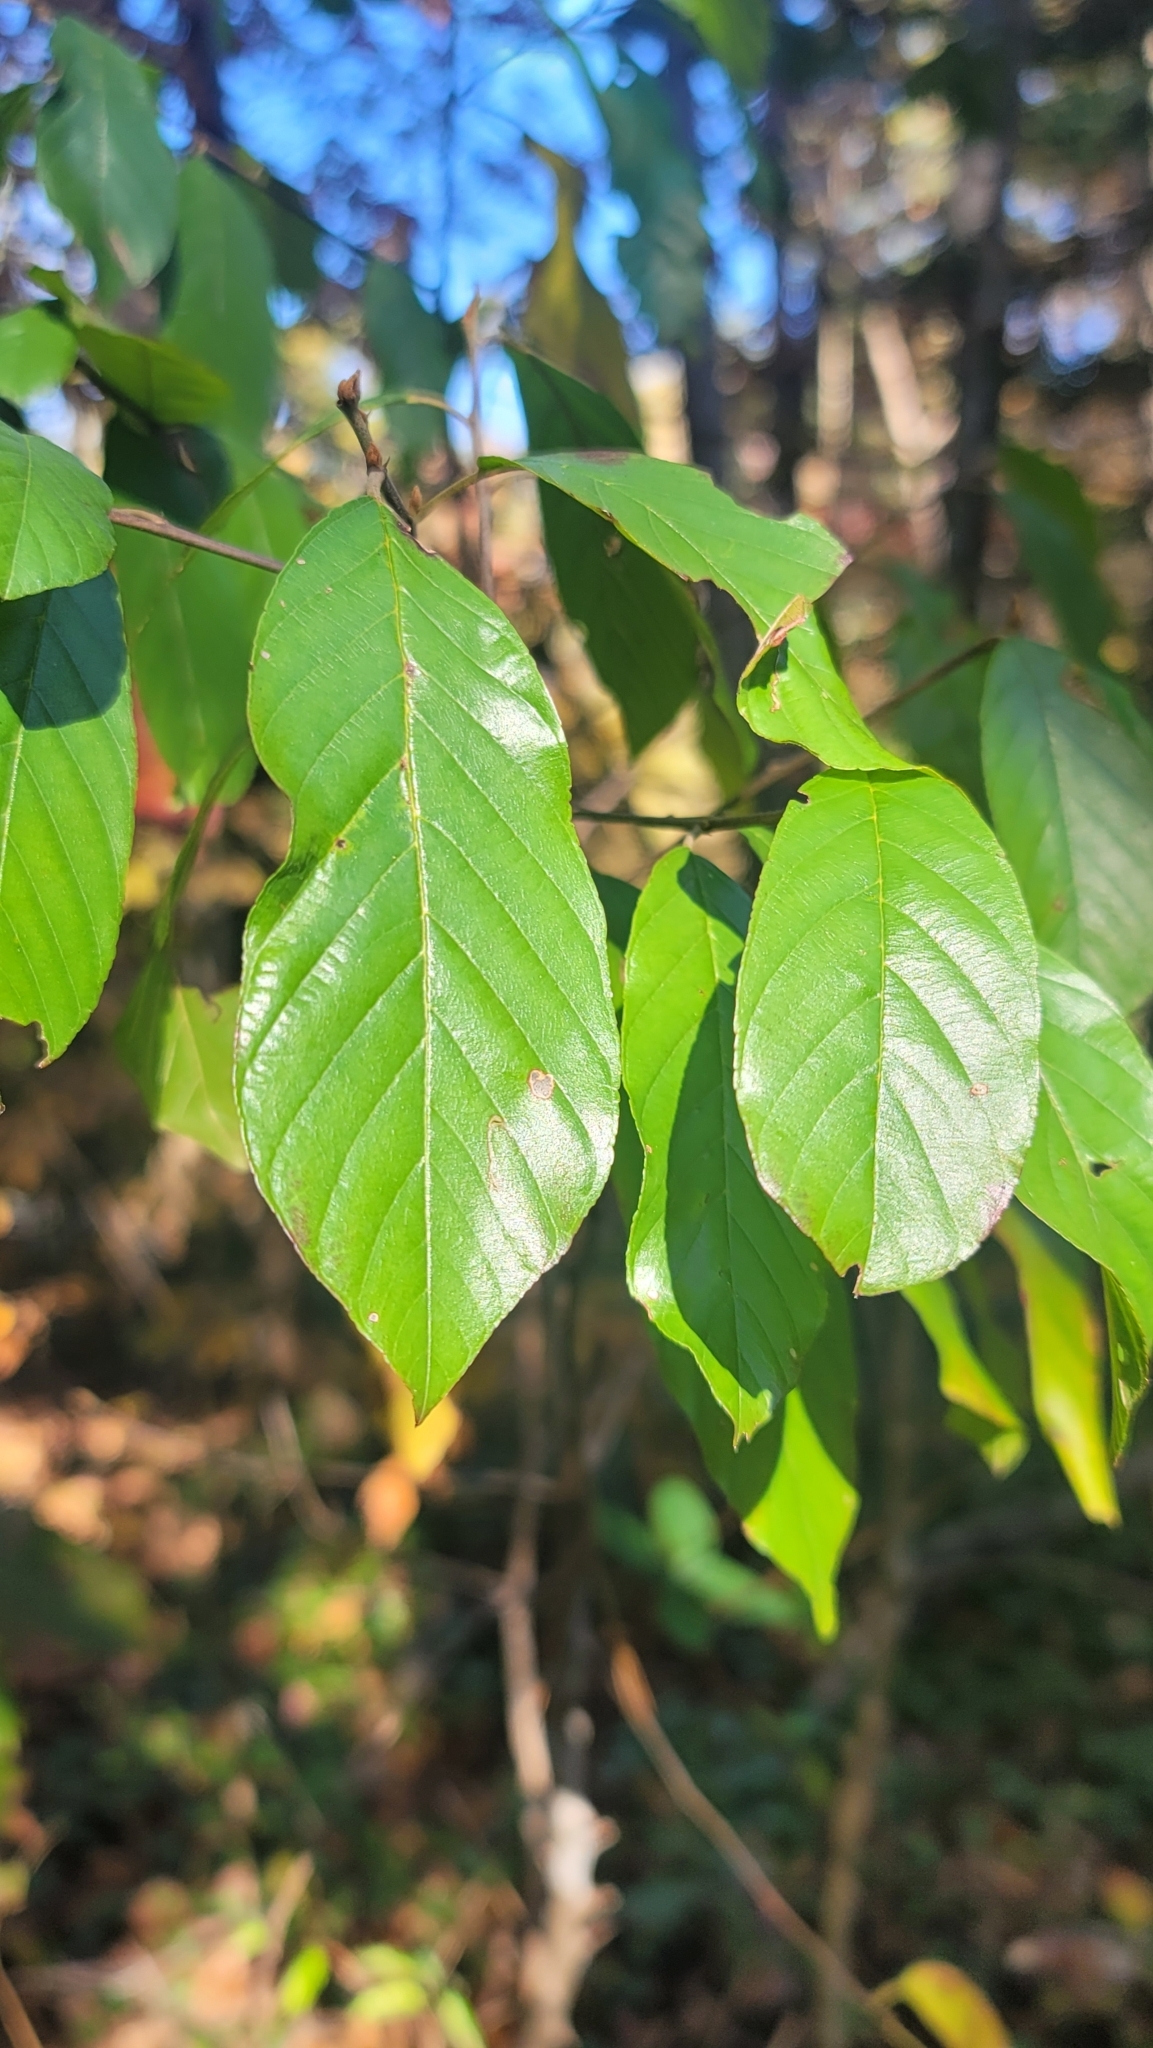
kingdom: Plantae
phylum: Tracheophyta
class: Magnoliopsida
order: Rosales
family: Rhamnaceae
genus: Frangula
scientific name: Frangula caroliniana
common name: Carolina buckthorn
